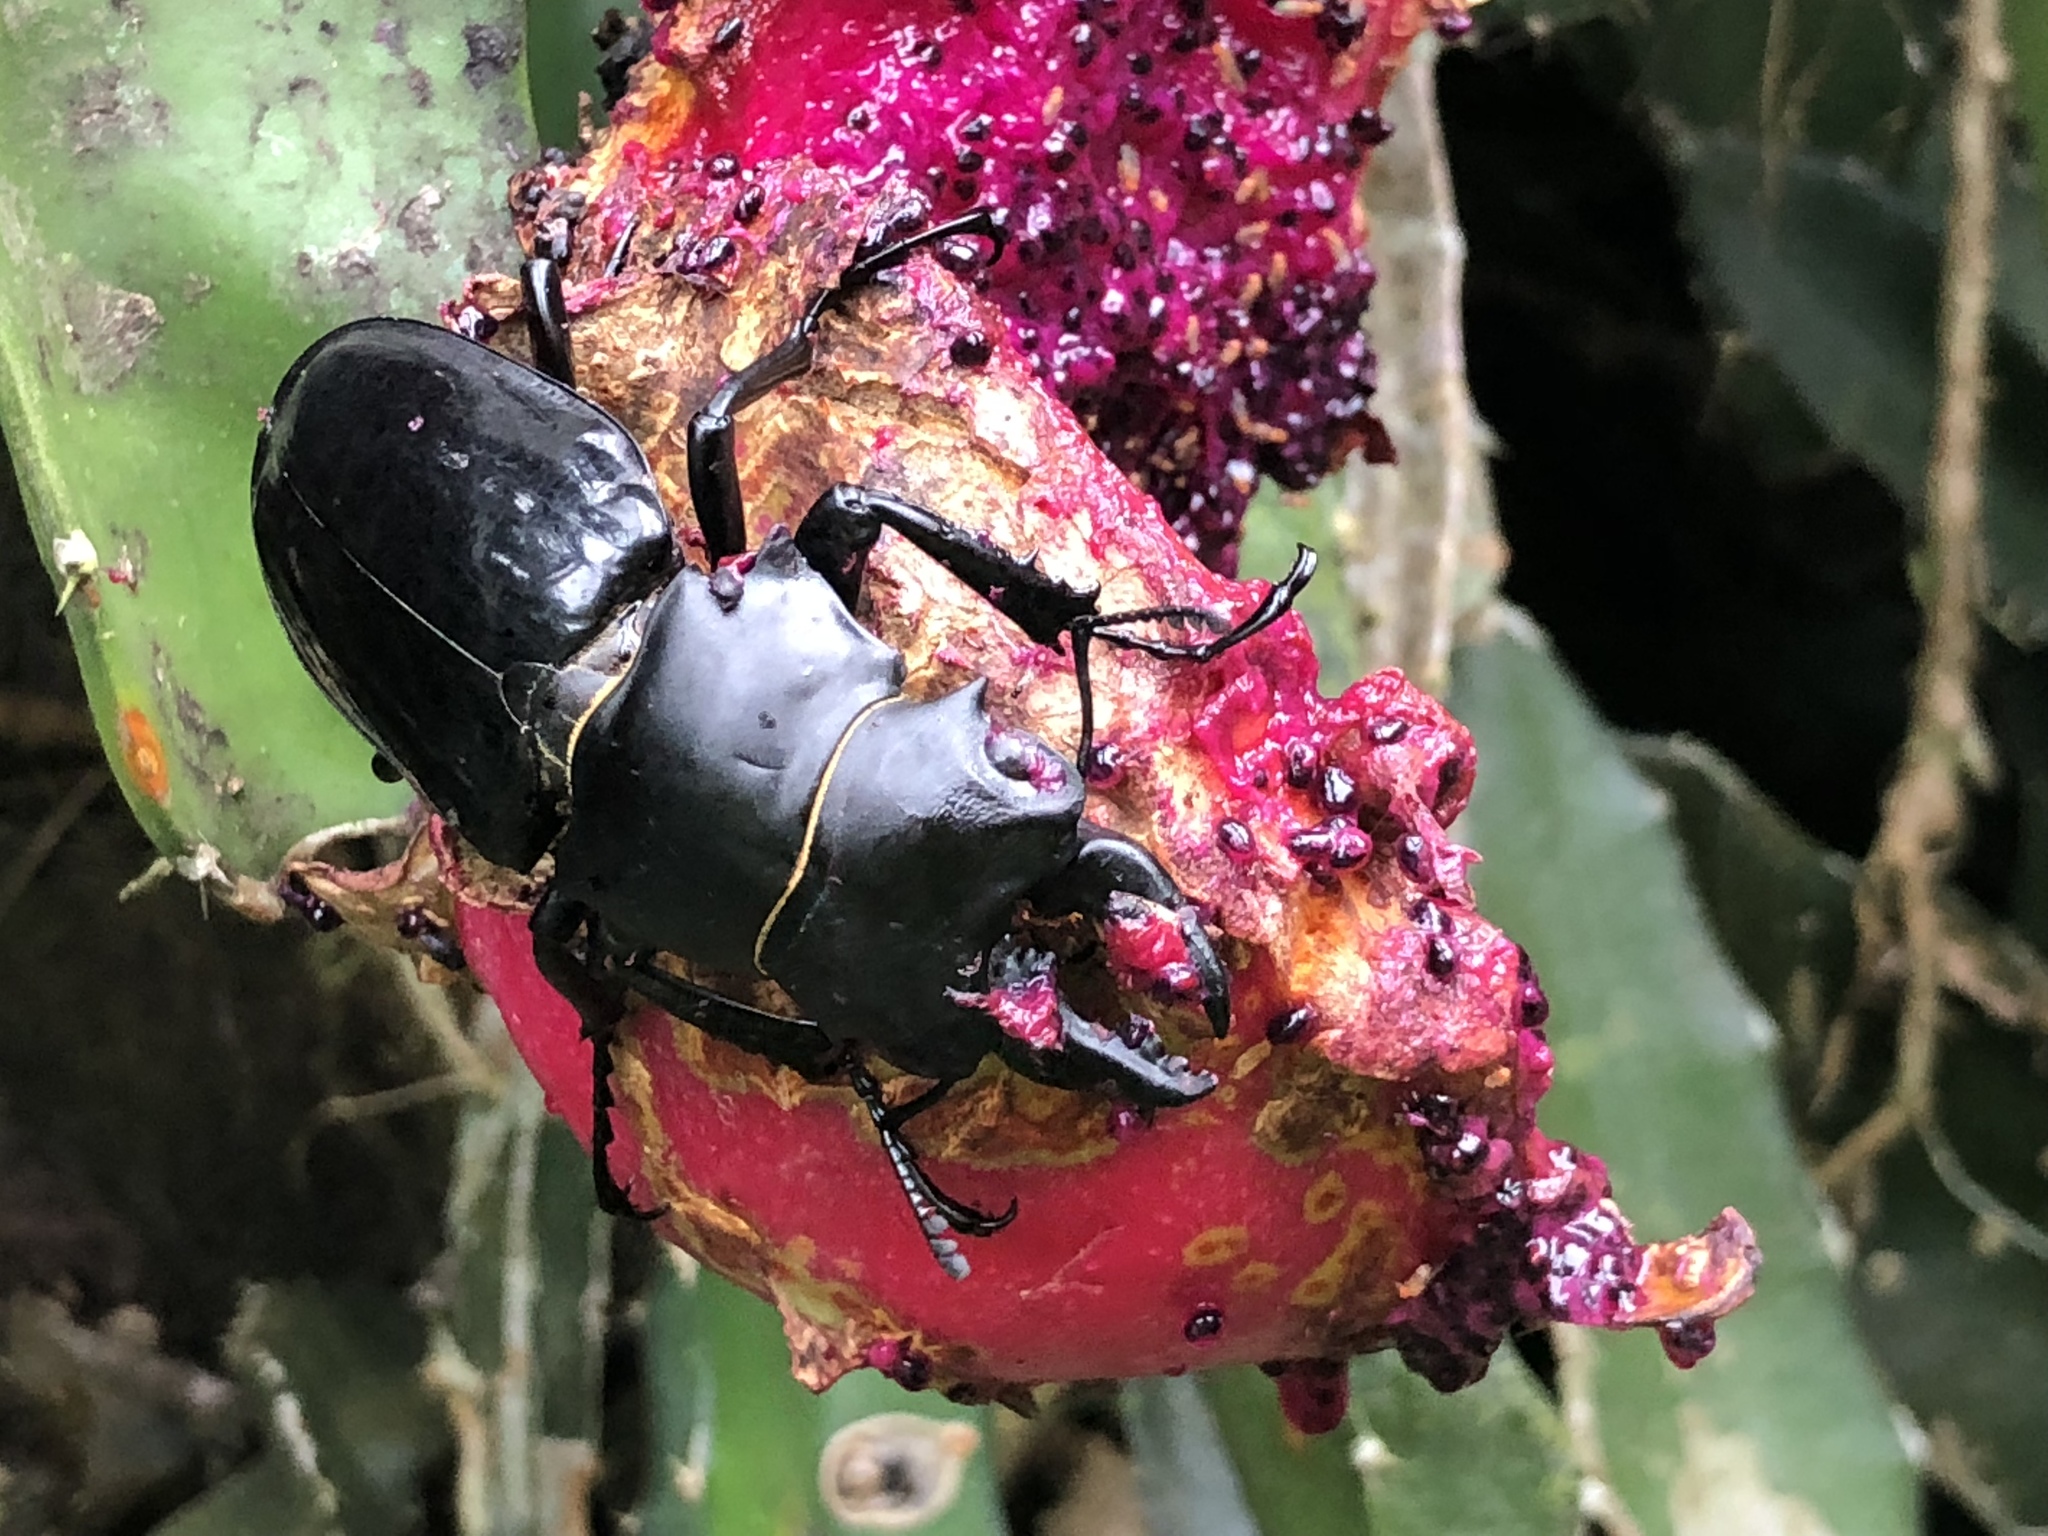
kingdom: Animalia
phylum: Arthropoda
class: Insecta
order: Coleoptera
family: Lucanidae
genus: Odontolabis
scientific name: Odontolabis siva
